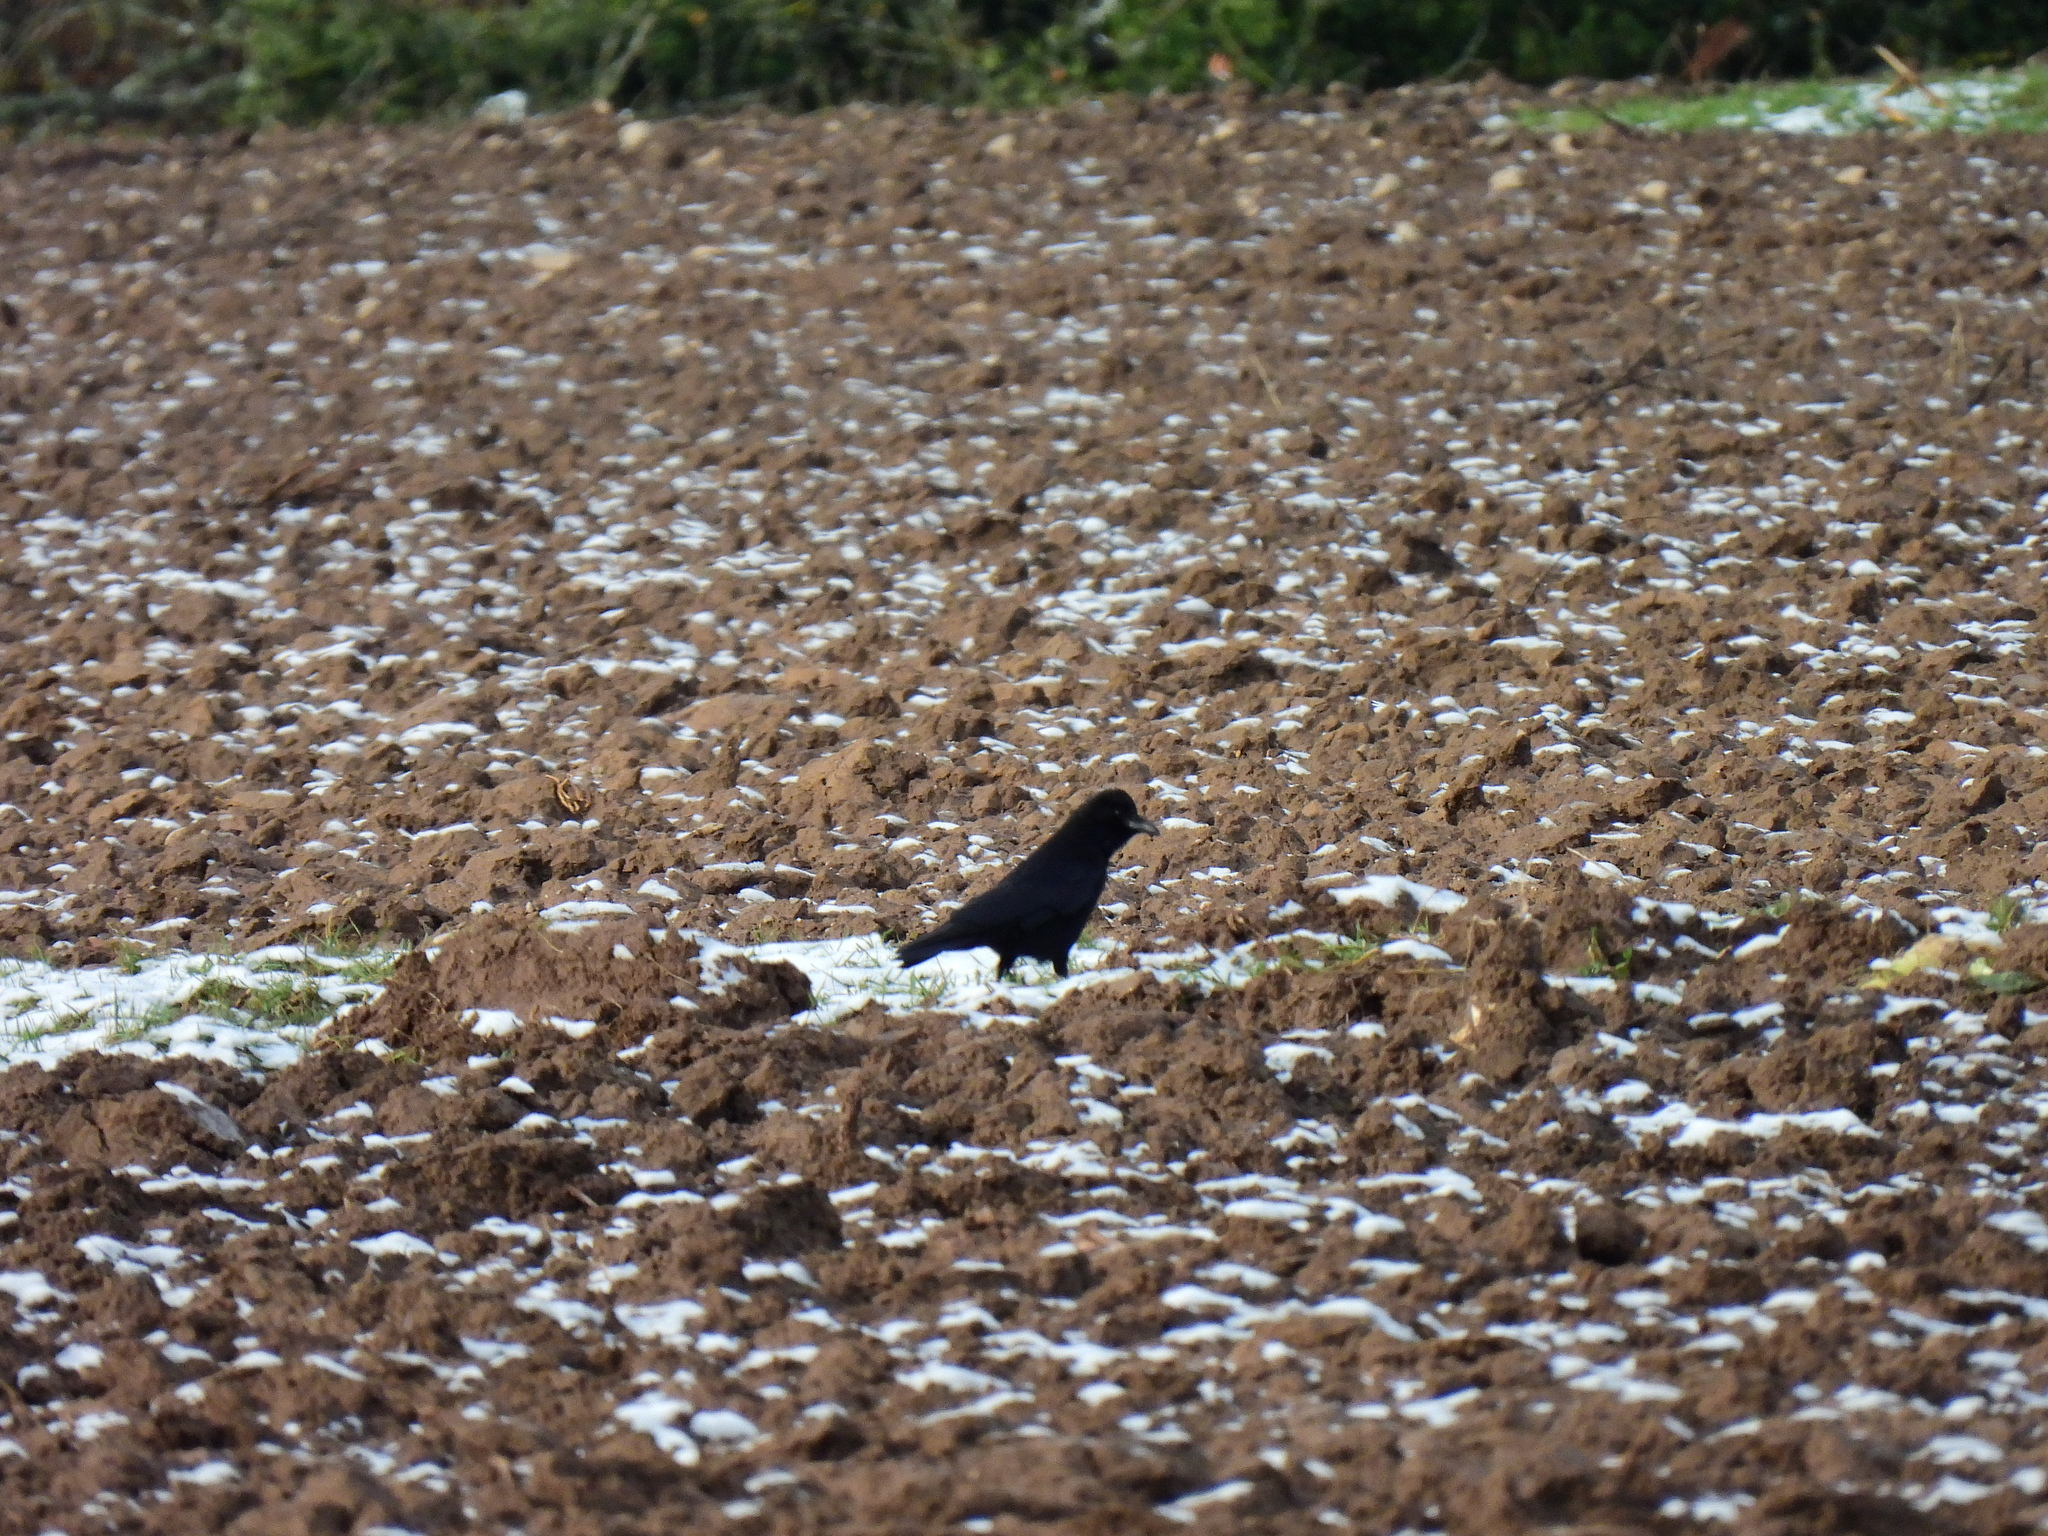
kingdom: Animalia
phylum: Chordata
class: Aves
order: Passeriformes
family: Corvidae
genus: Corvus
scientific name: Corvus corone
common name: Carrion crow
